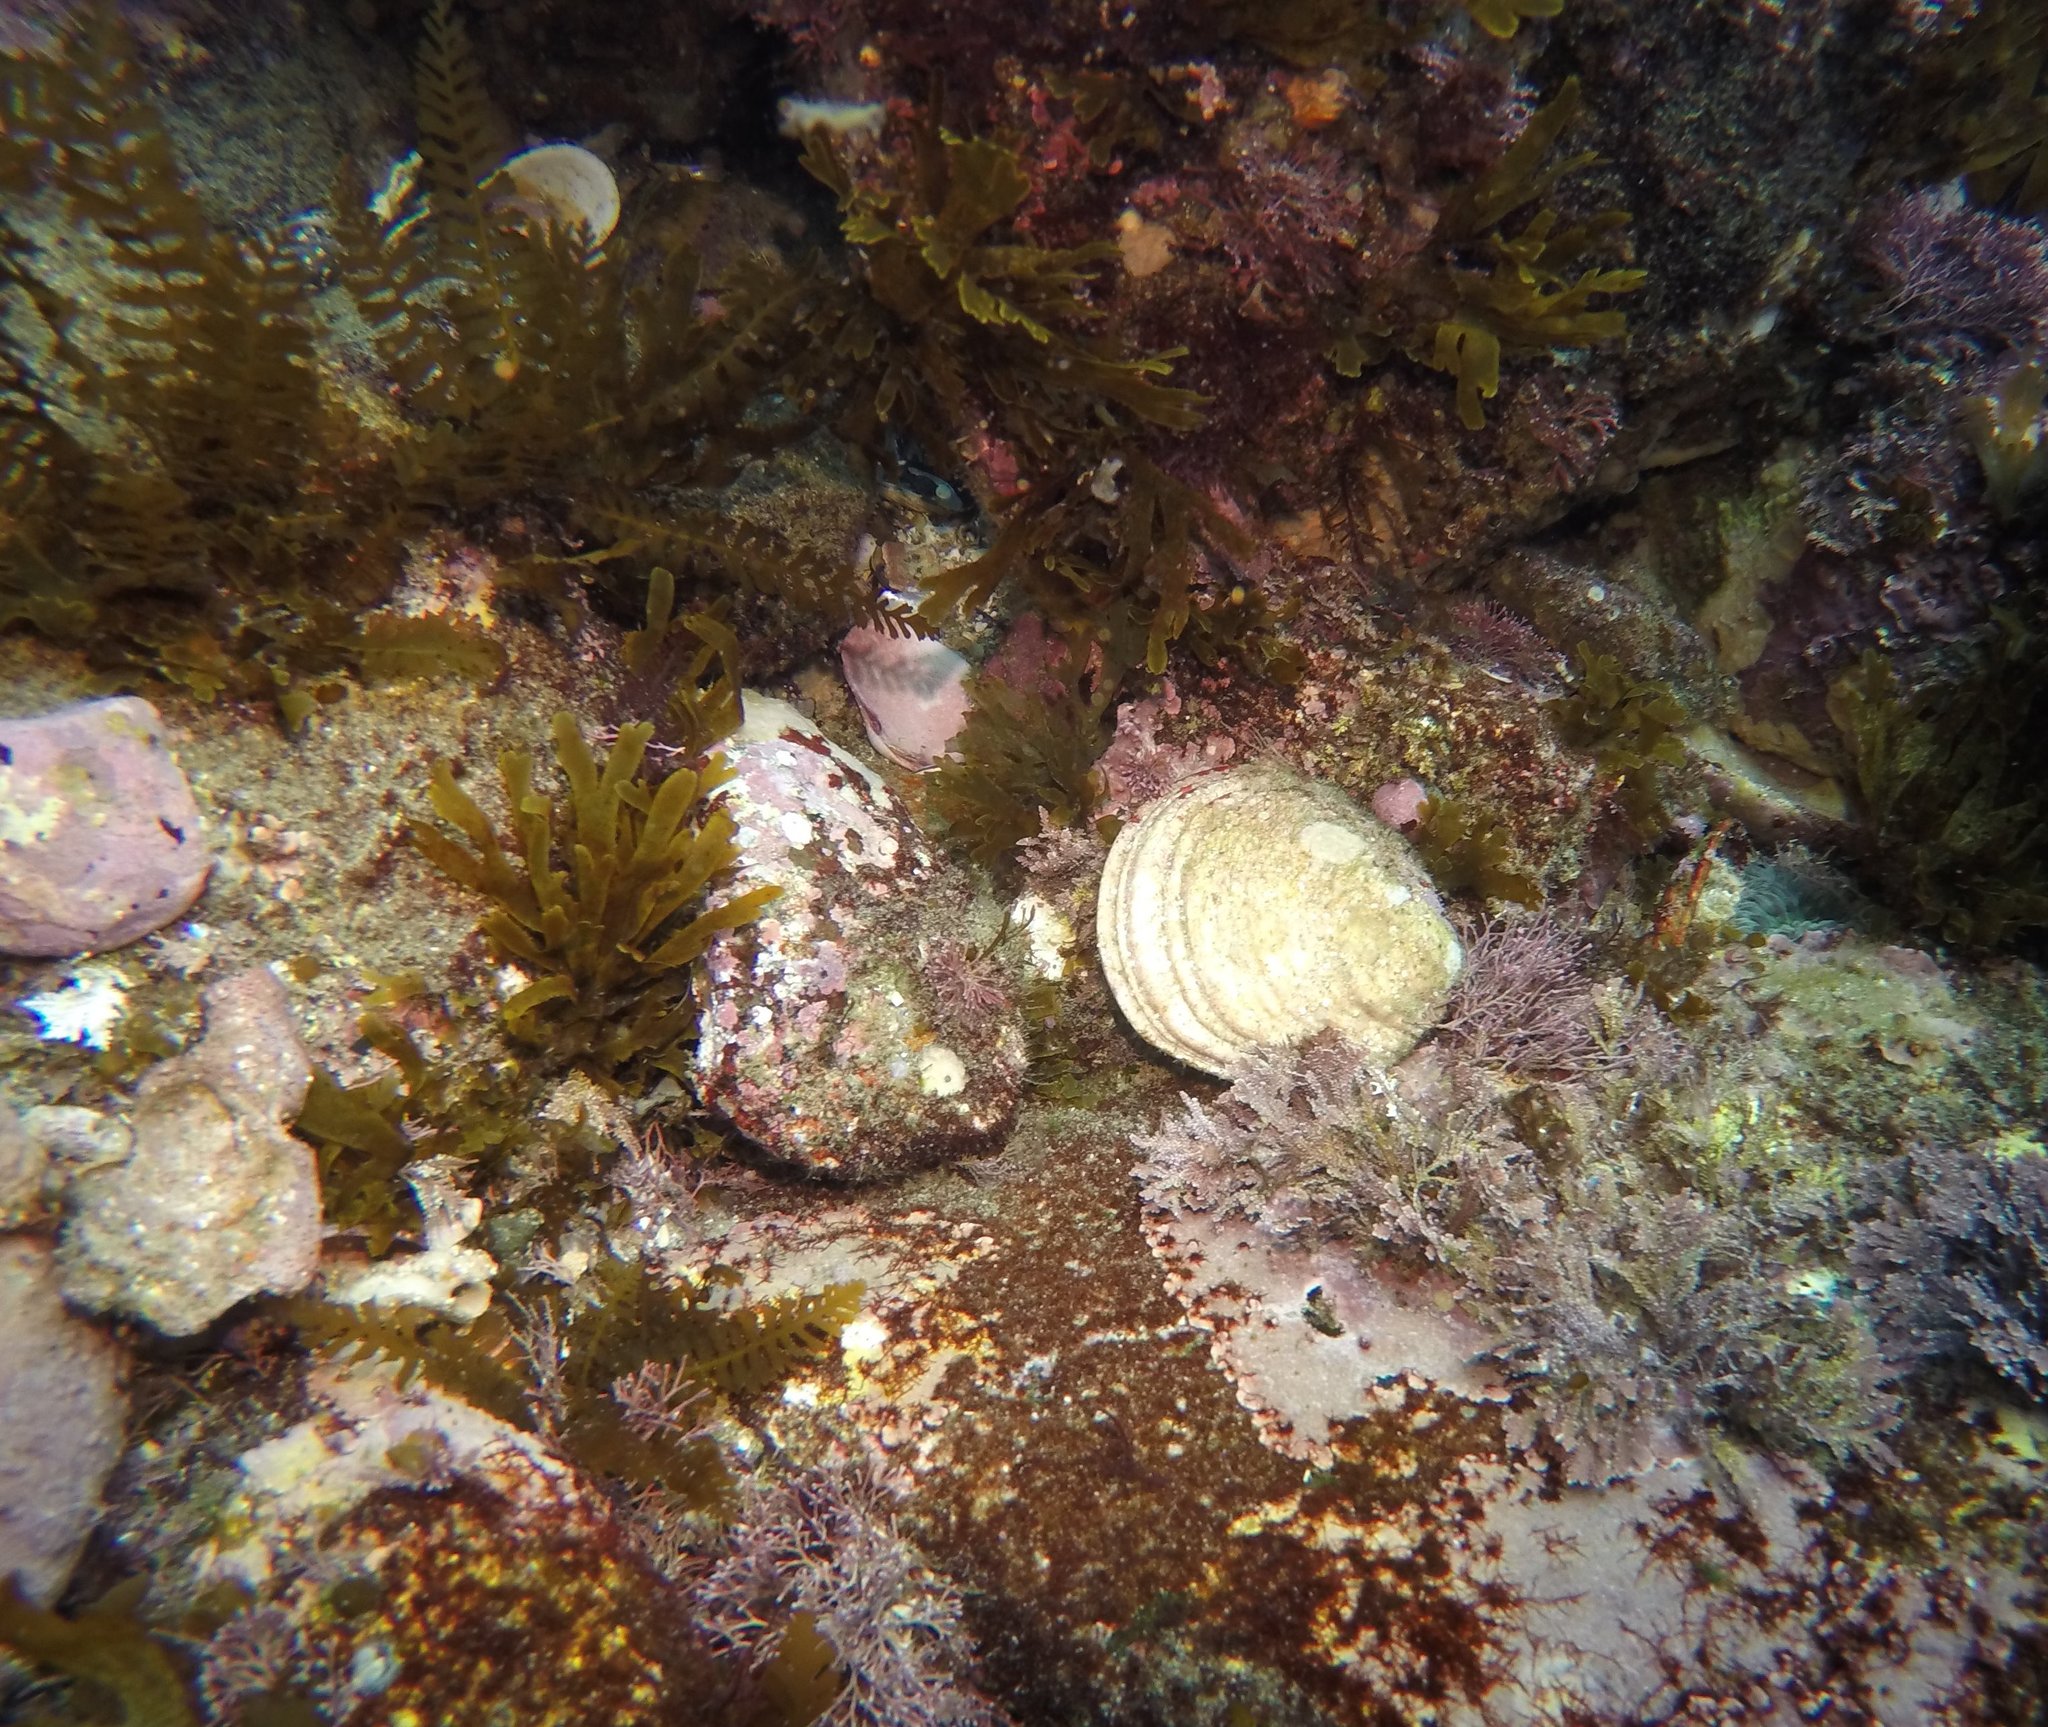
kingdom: Animalia
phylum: Mollusca
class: Bivalvia
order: Cardiida
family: Semelidae
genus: Semele
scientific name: Semele decisa
